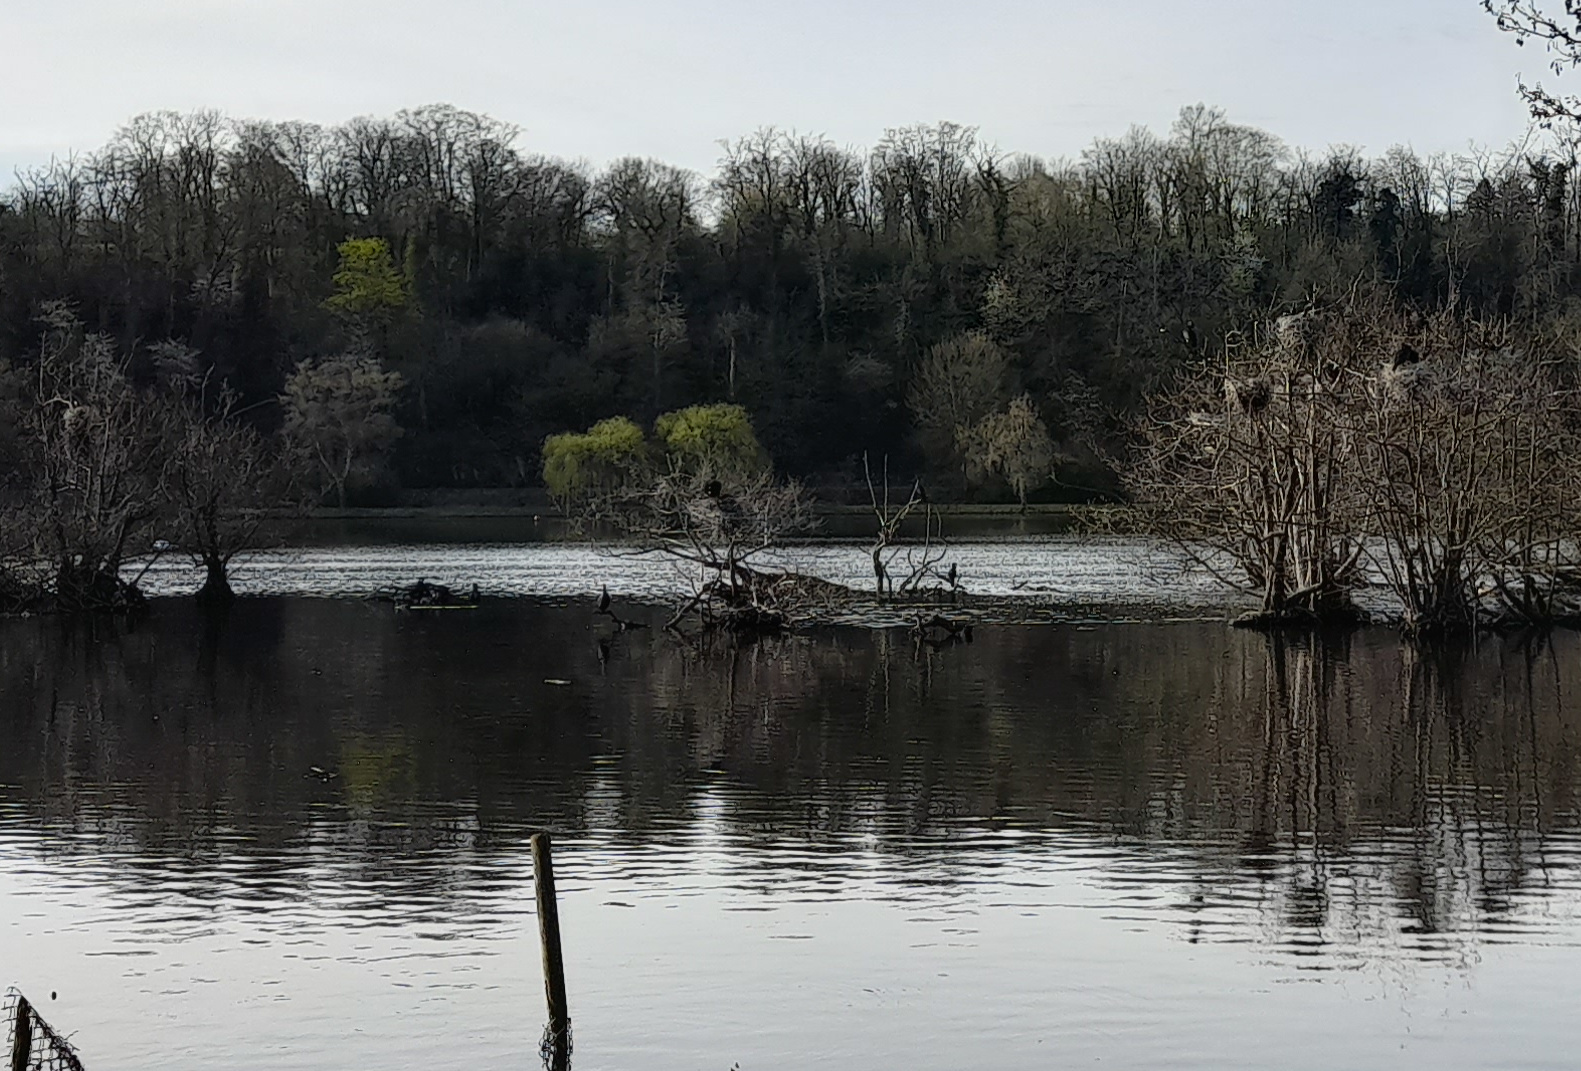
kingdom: Animalia
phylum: Chordata
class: Aves
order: Suliformes
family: Phalacrocoracidae
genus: Phalacrocorax
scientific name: Phalacrocorax carbo
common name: Great cormorant
